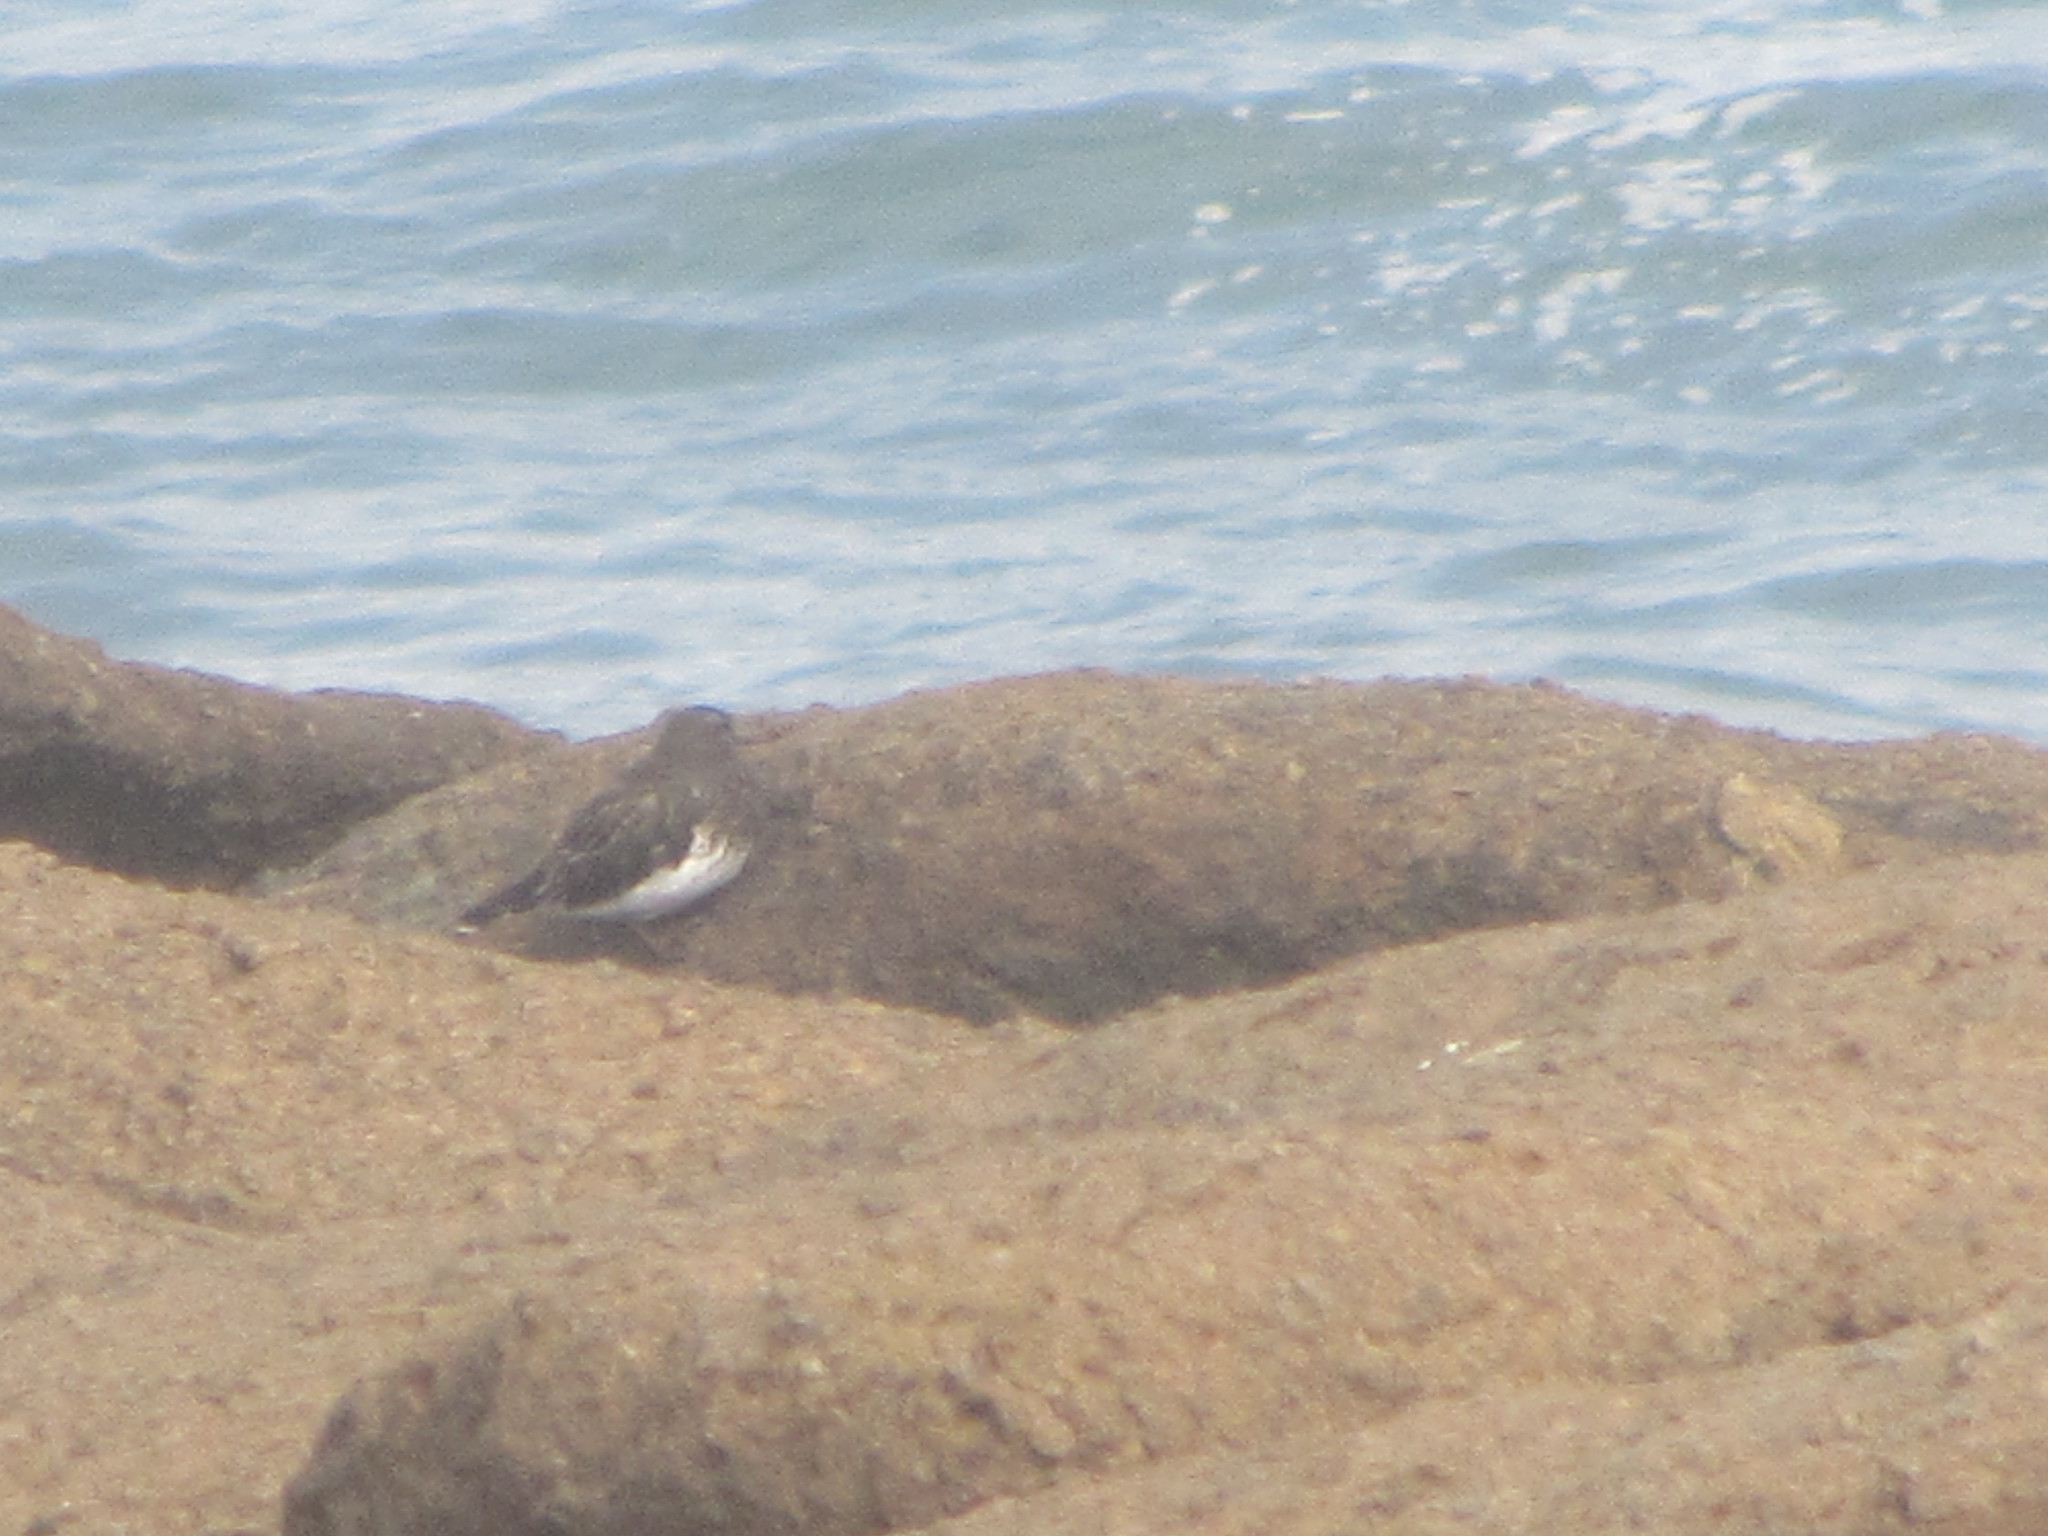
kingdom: Animalia
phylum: Chordata
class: Aves
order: Charadriiformes
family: Scolopacidae
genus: Arenaria
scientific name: Arenaria melanocephala
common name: Black turnstone
